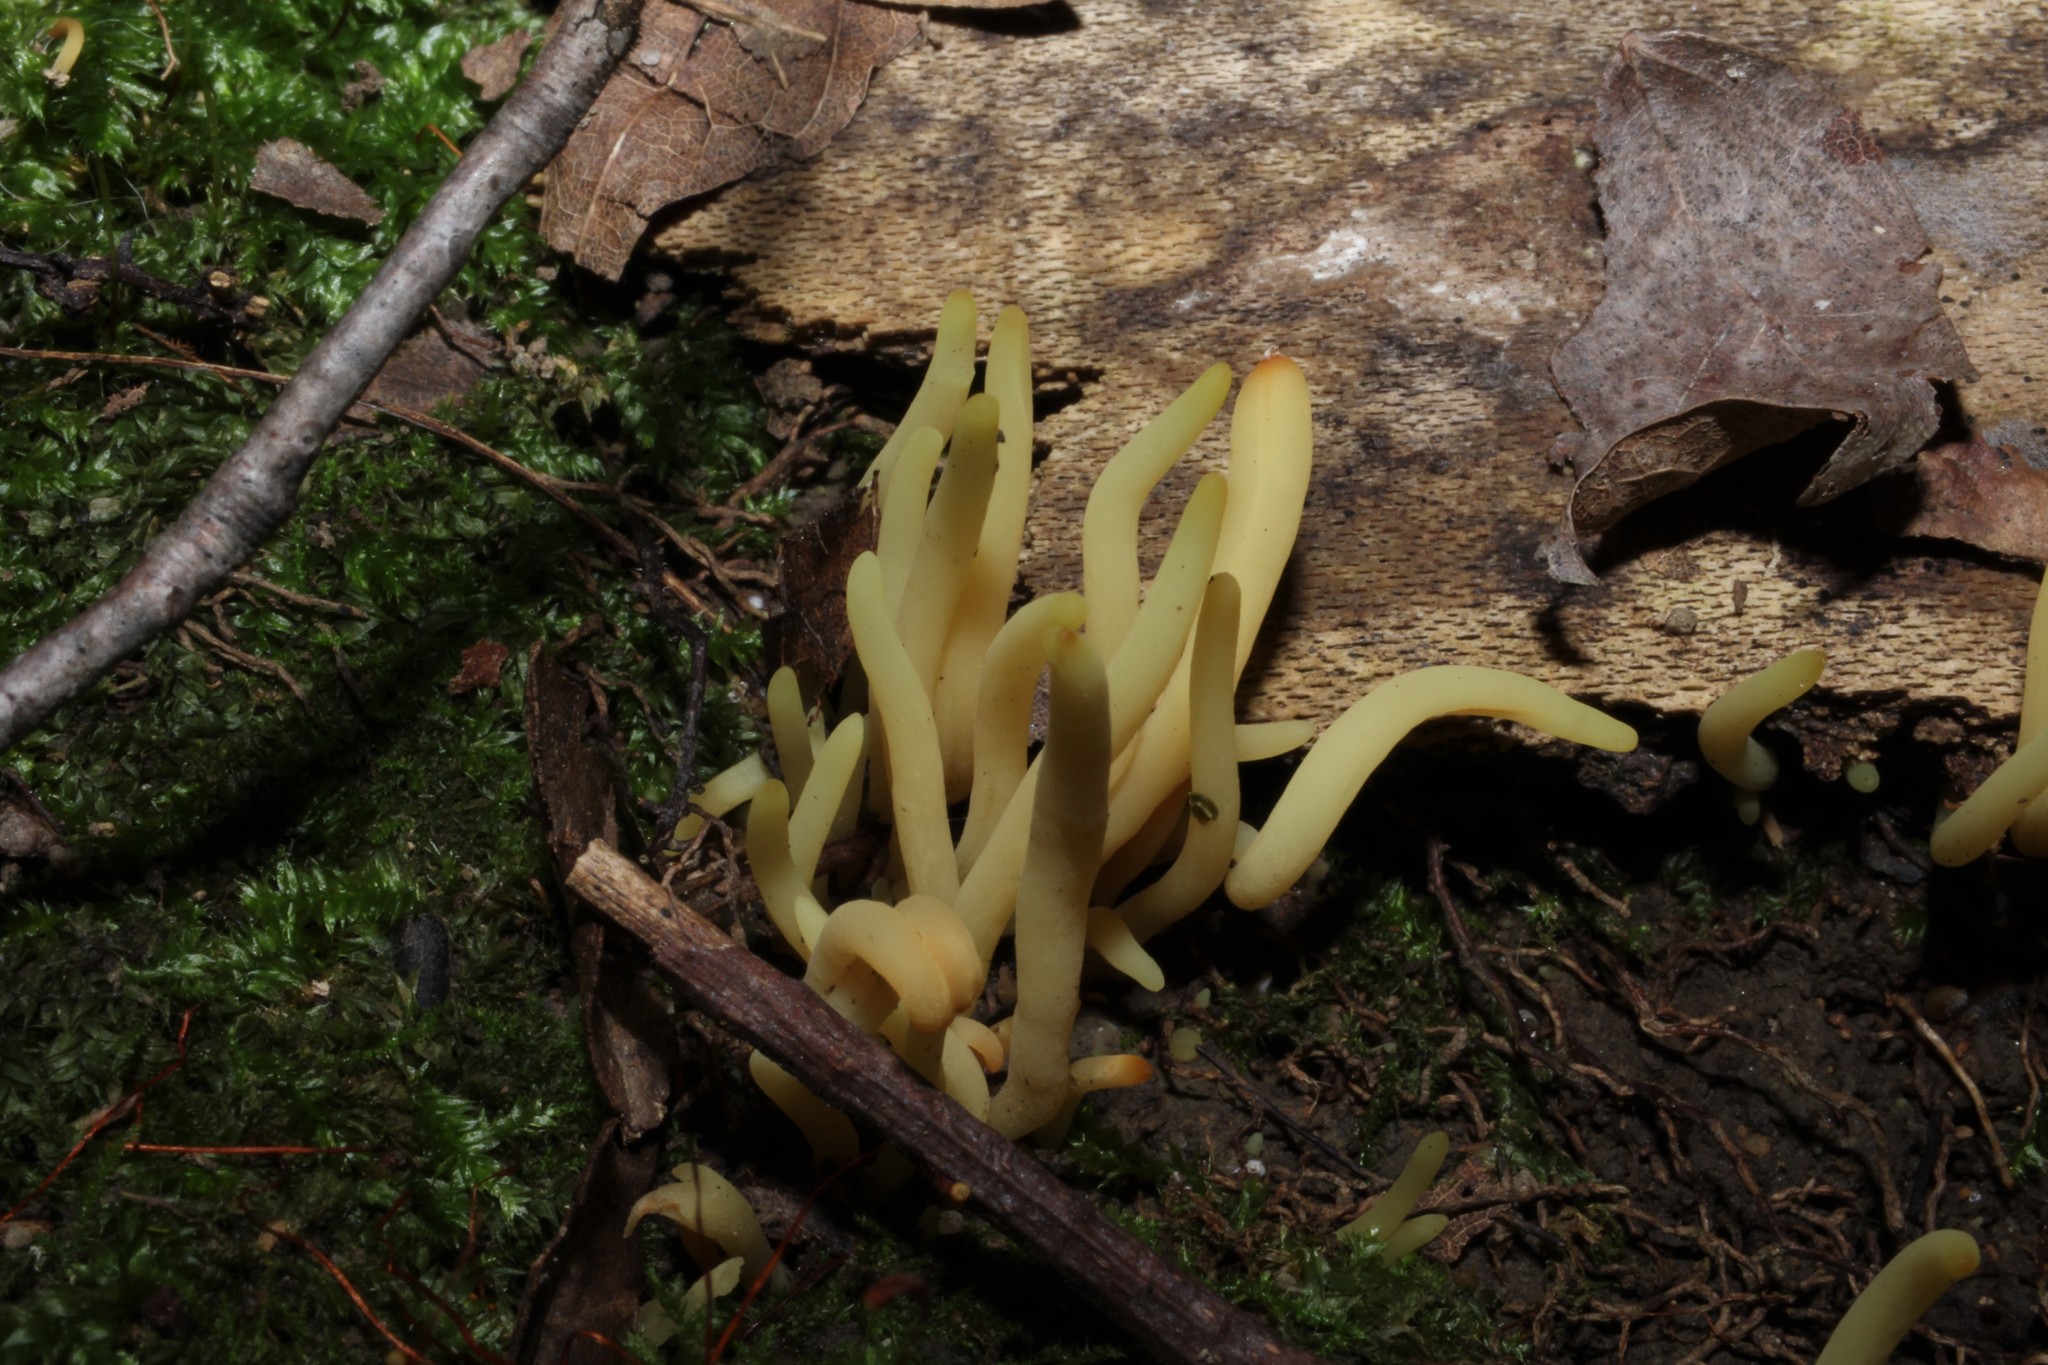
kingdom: Fungi
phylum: Basidiomycota
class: Agaricomycetes
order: Agaricales
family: Clavariaceae
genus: Clavulinopsis
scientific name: Clavulinopsis fusiformis
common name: Golden spindles
